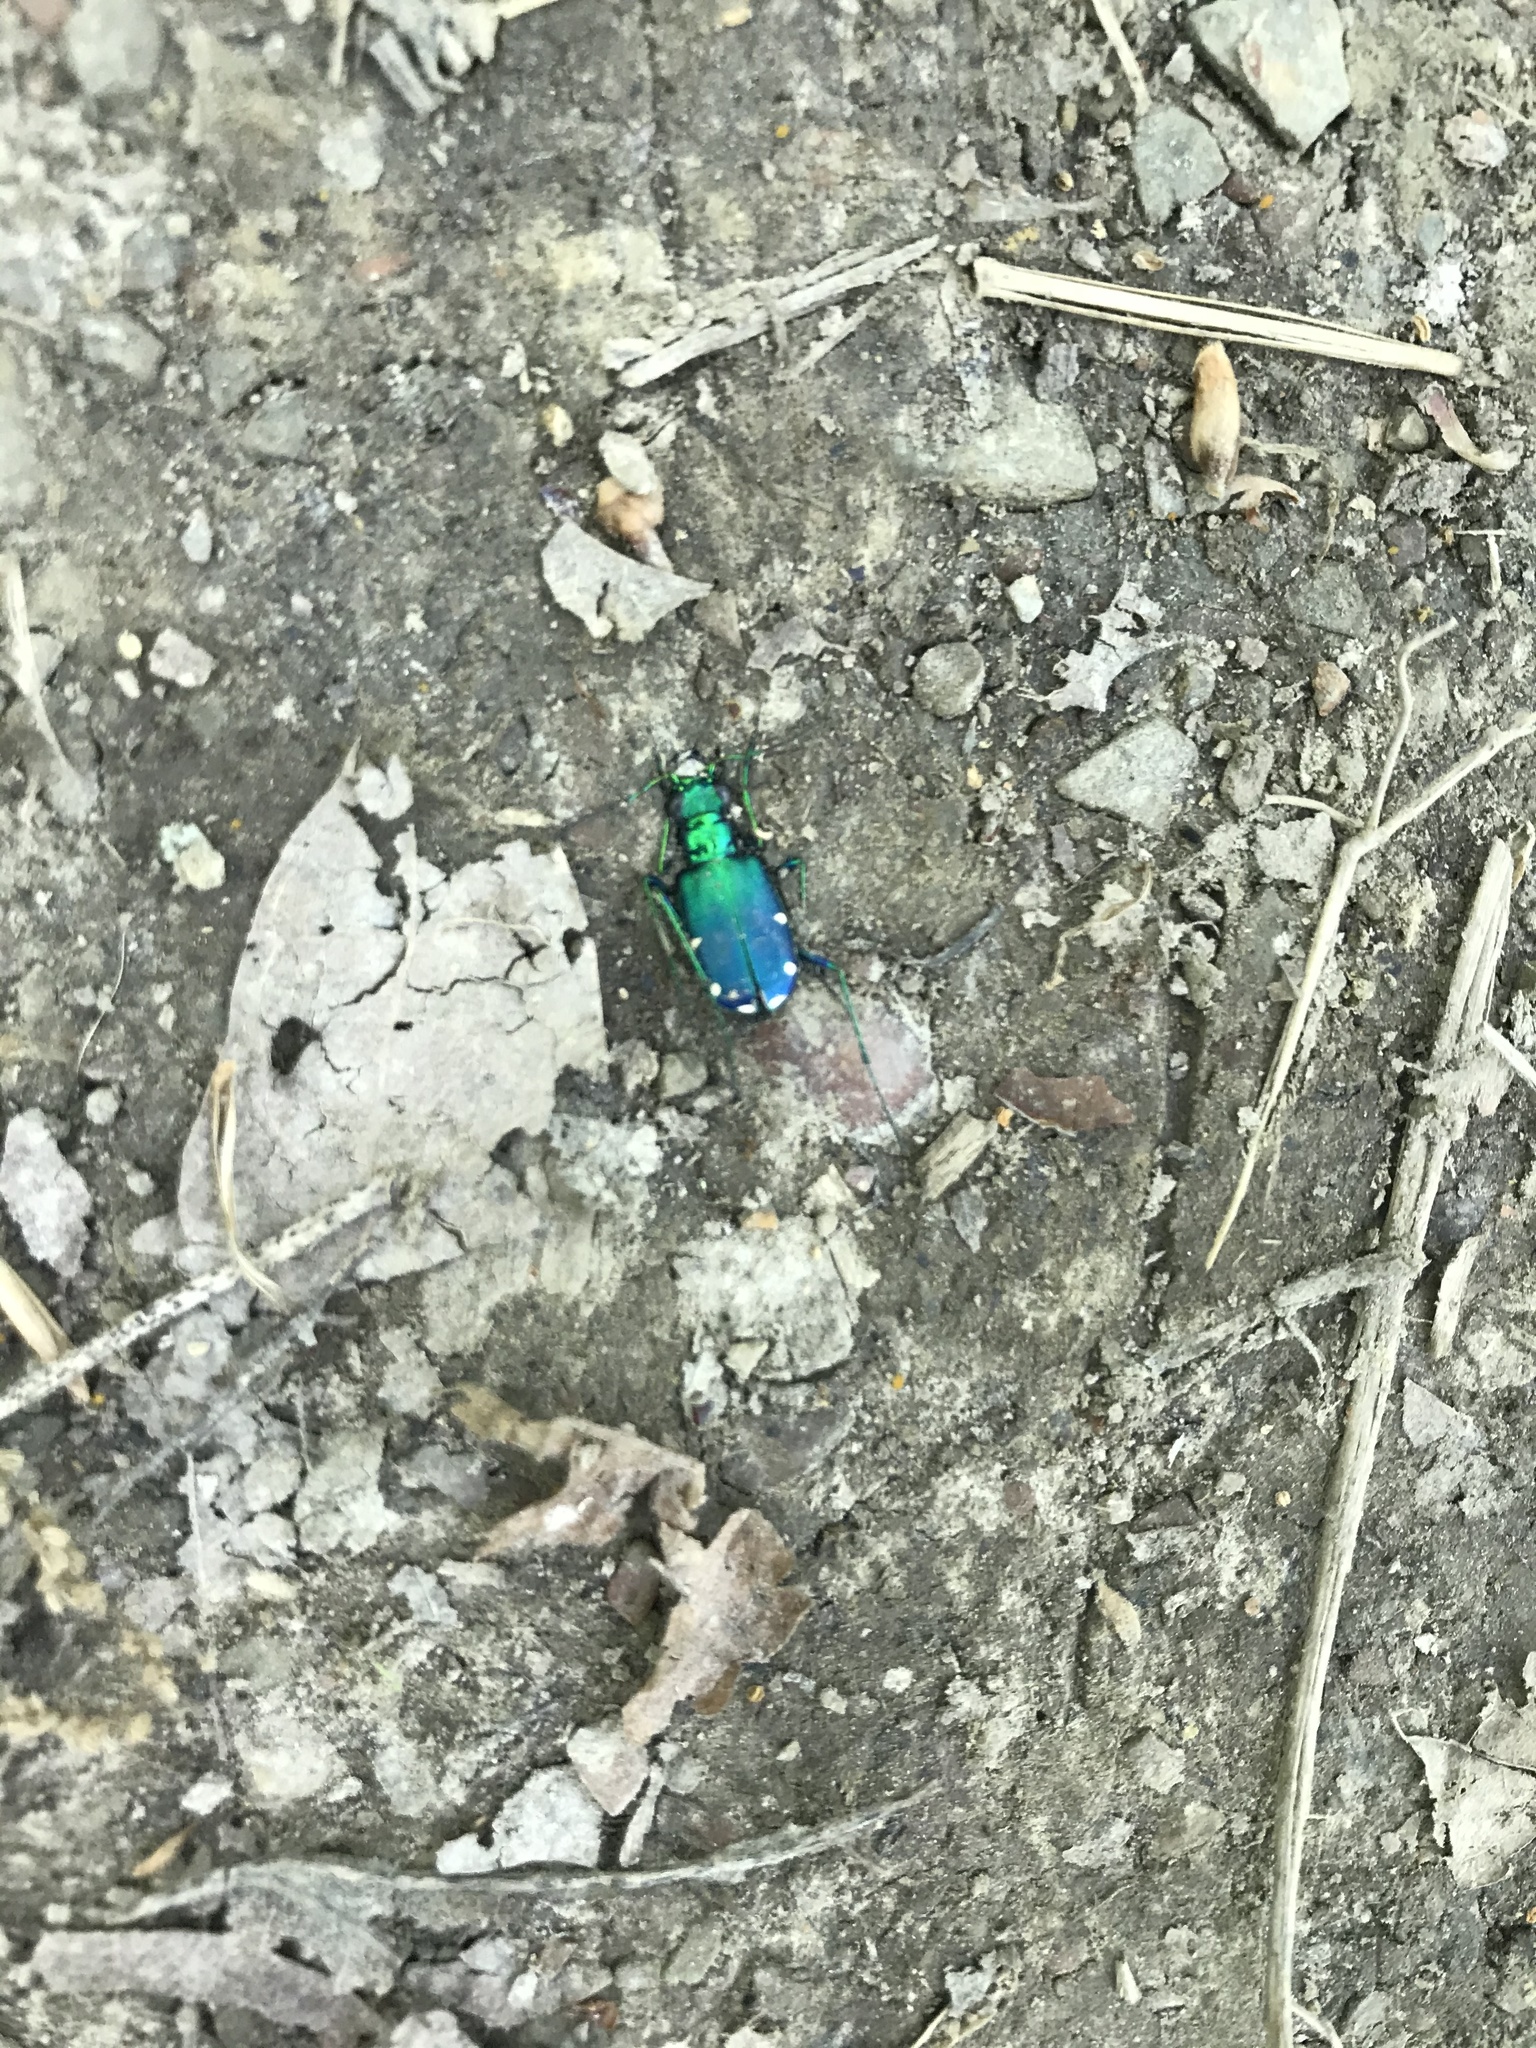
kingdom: Animalia
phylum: Arthropoda
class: Insecta
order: Coleoptera
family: Carabidae
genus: Cicindela
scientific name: Cicindela sexguttata
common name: Six-spotted tiger beetle
